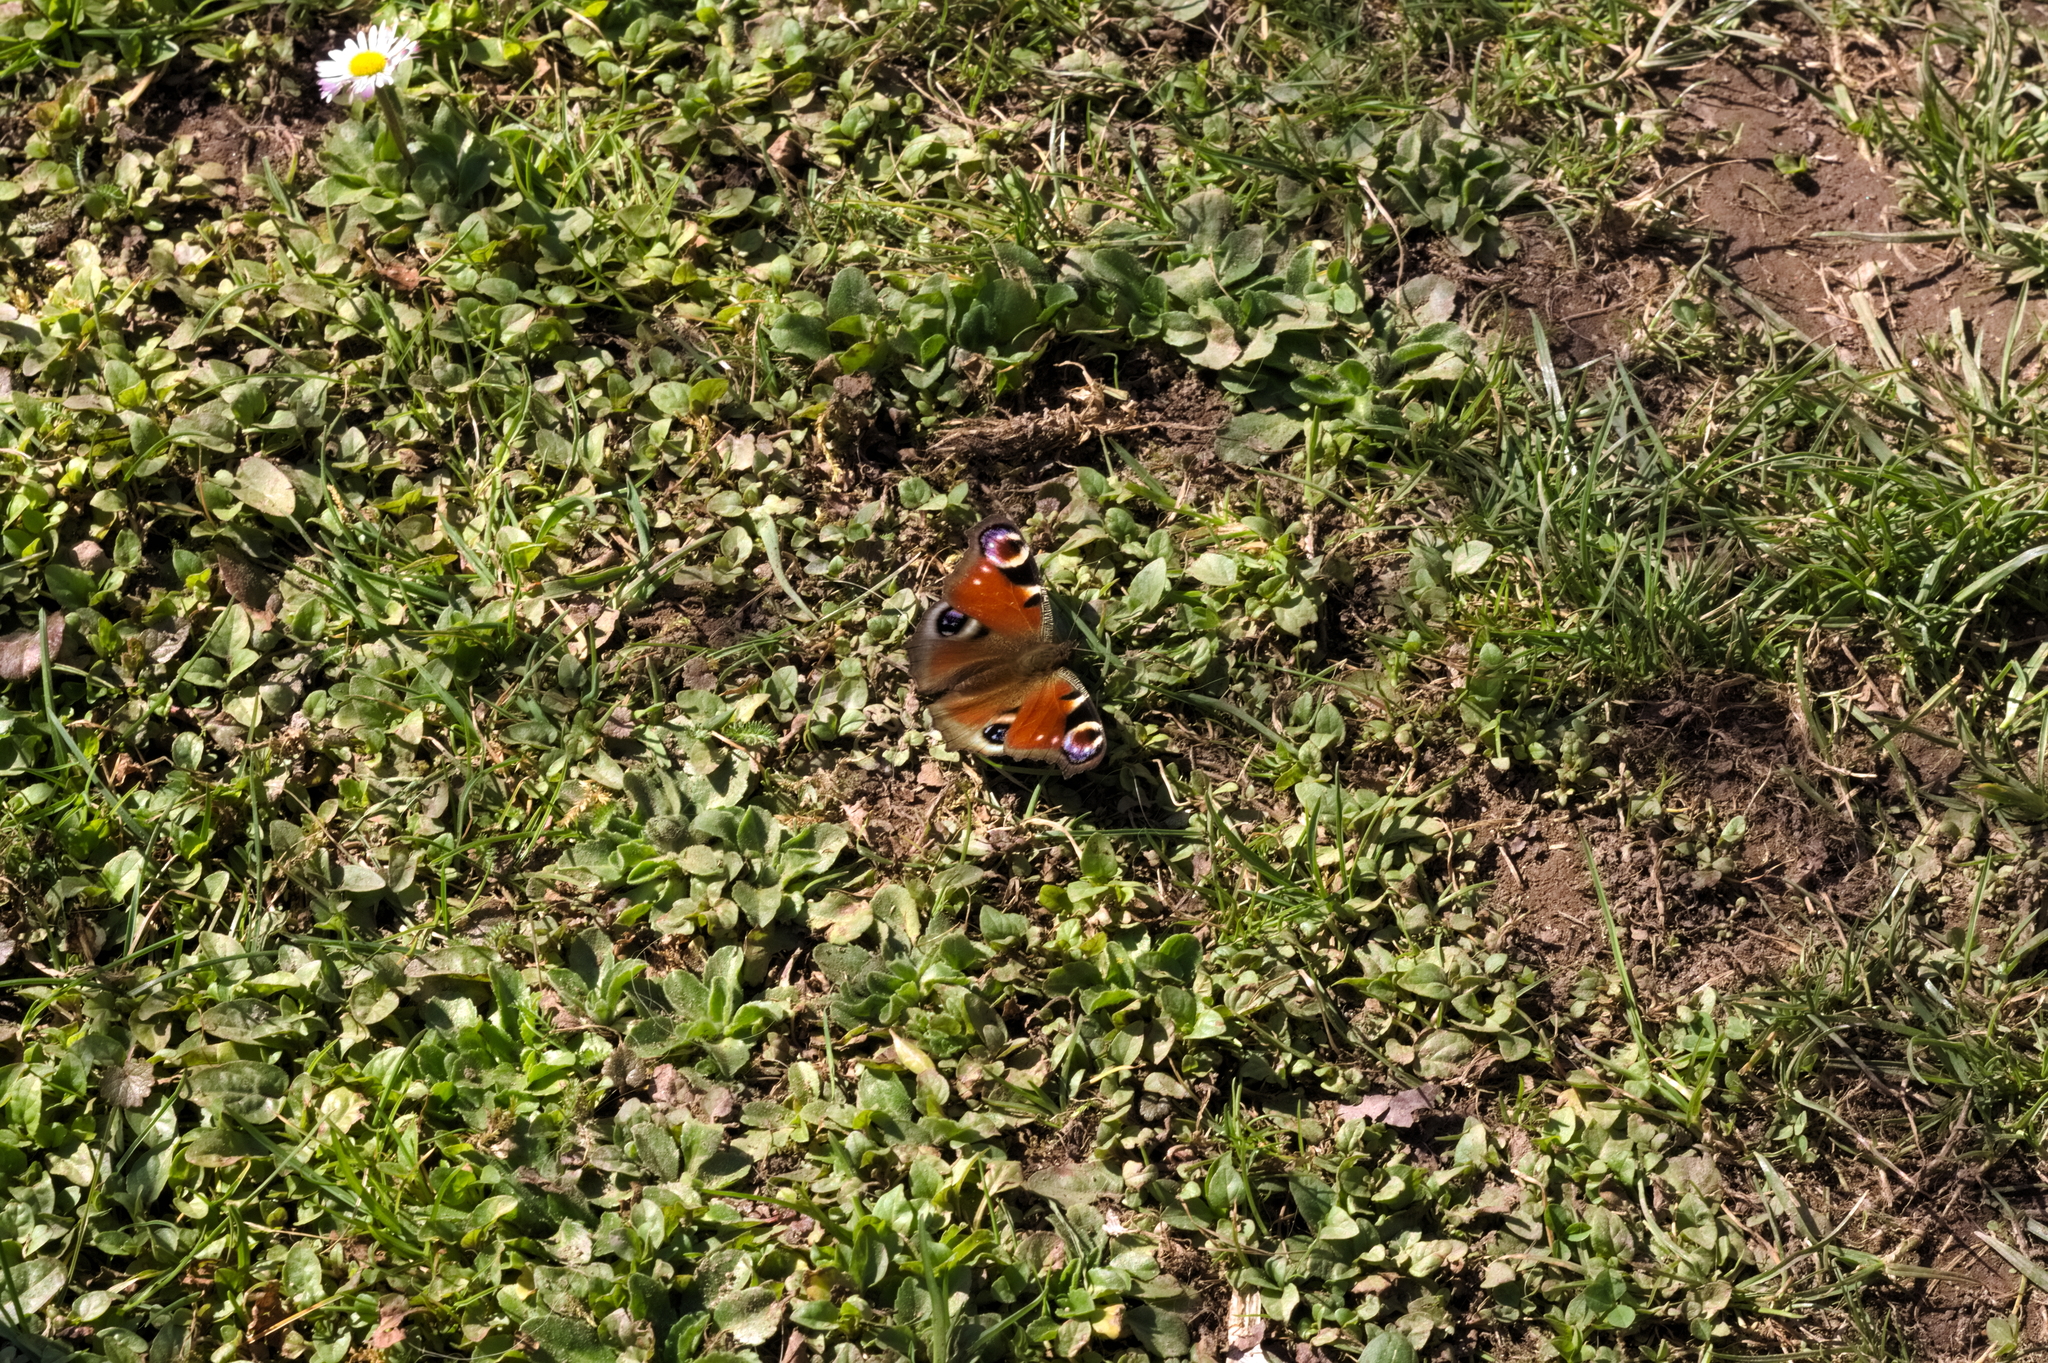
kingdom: Animalia
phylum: Arthropoda
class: Insecta
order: Lepidoptera
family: Nymphalidae
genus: Aglais
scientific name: Aglais io
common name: Peacock
